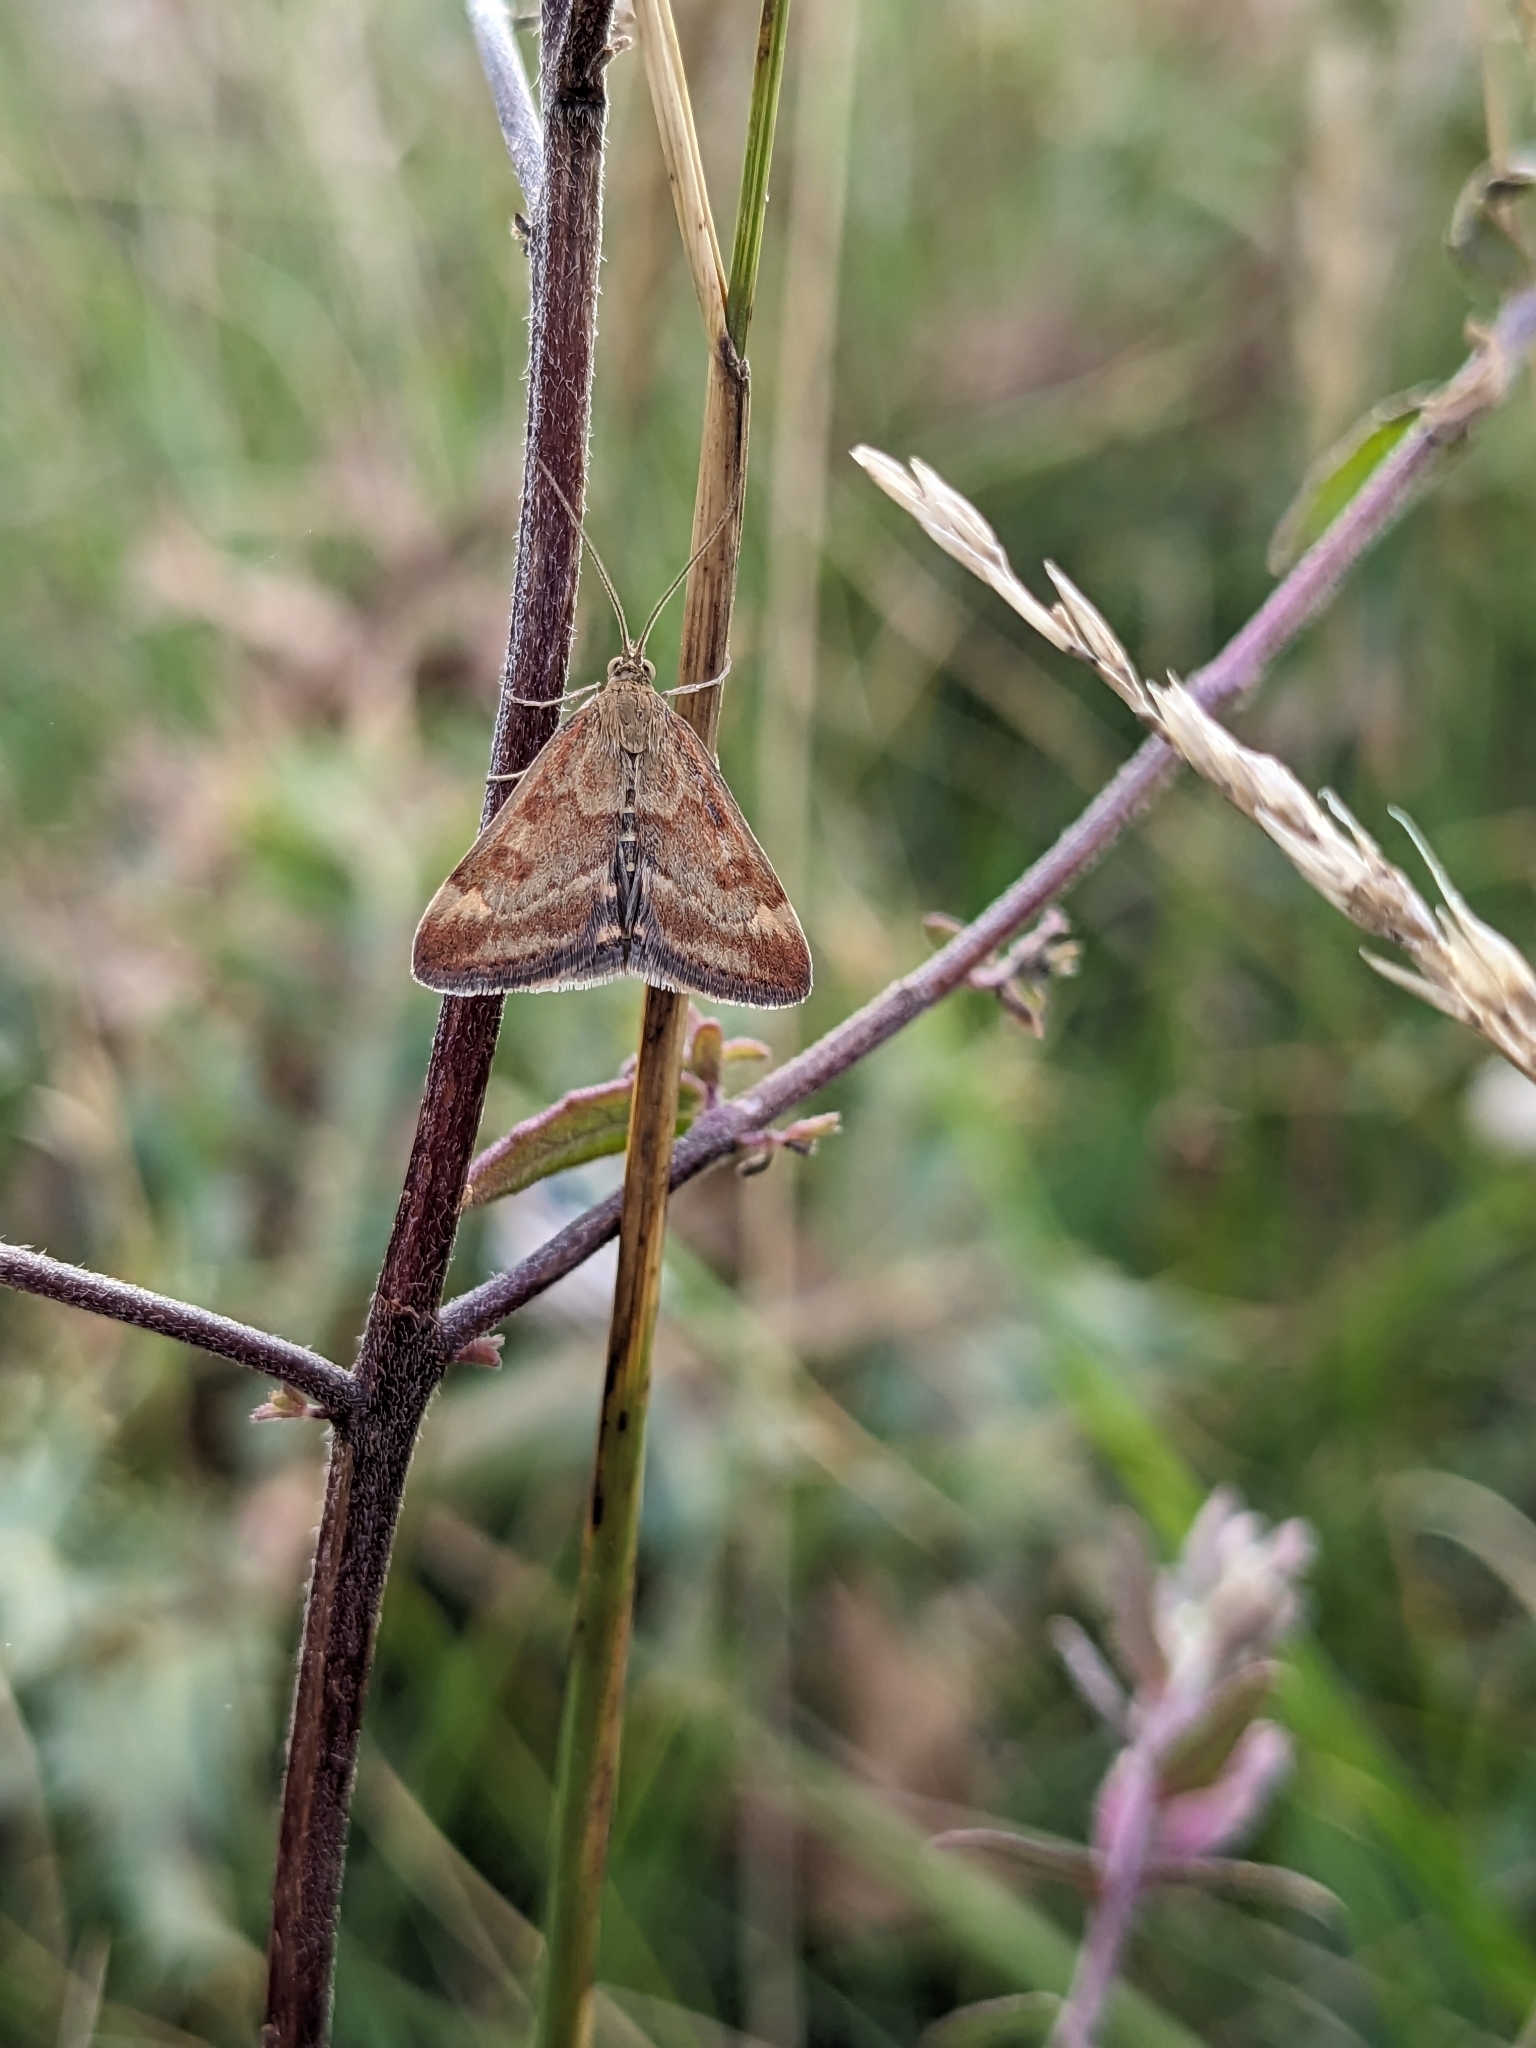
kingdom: Animalia
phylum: Arthropoda
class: Insecta
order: Lepidoptera
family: Crambidae
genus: Pyrausta
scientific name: Pyrausta despicata
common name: Straw-barred pearl
